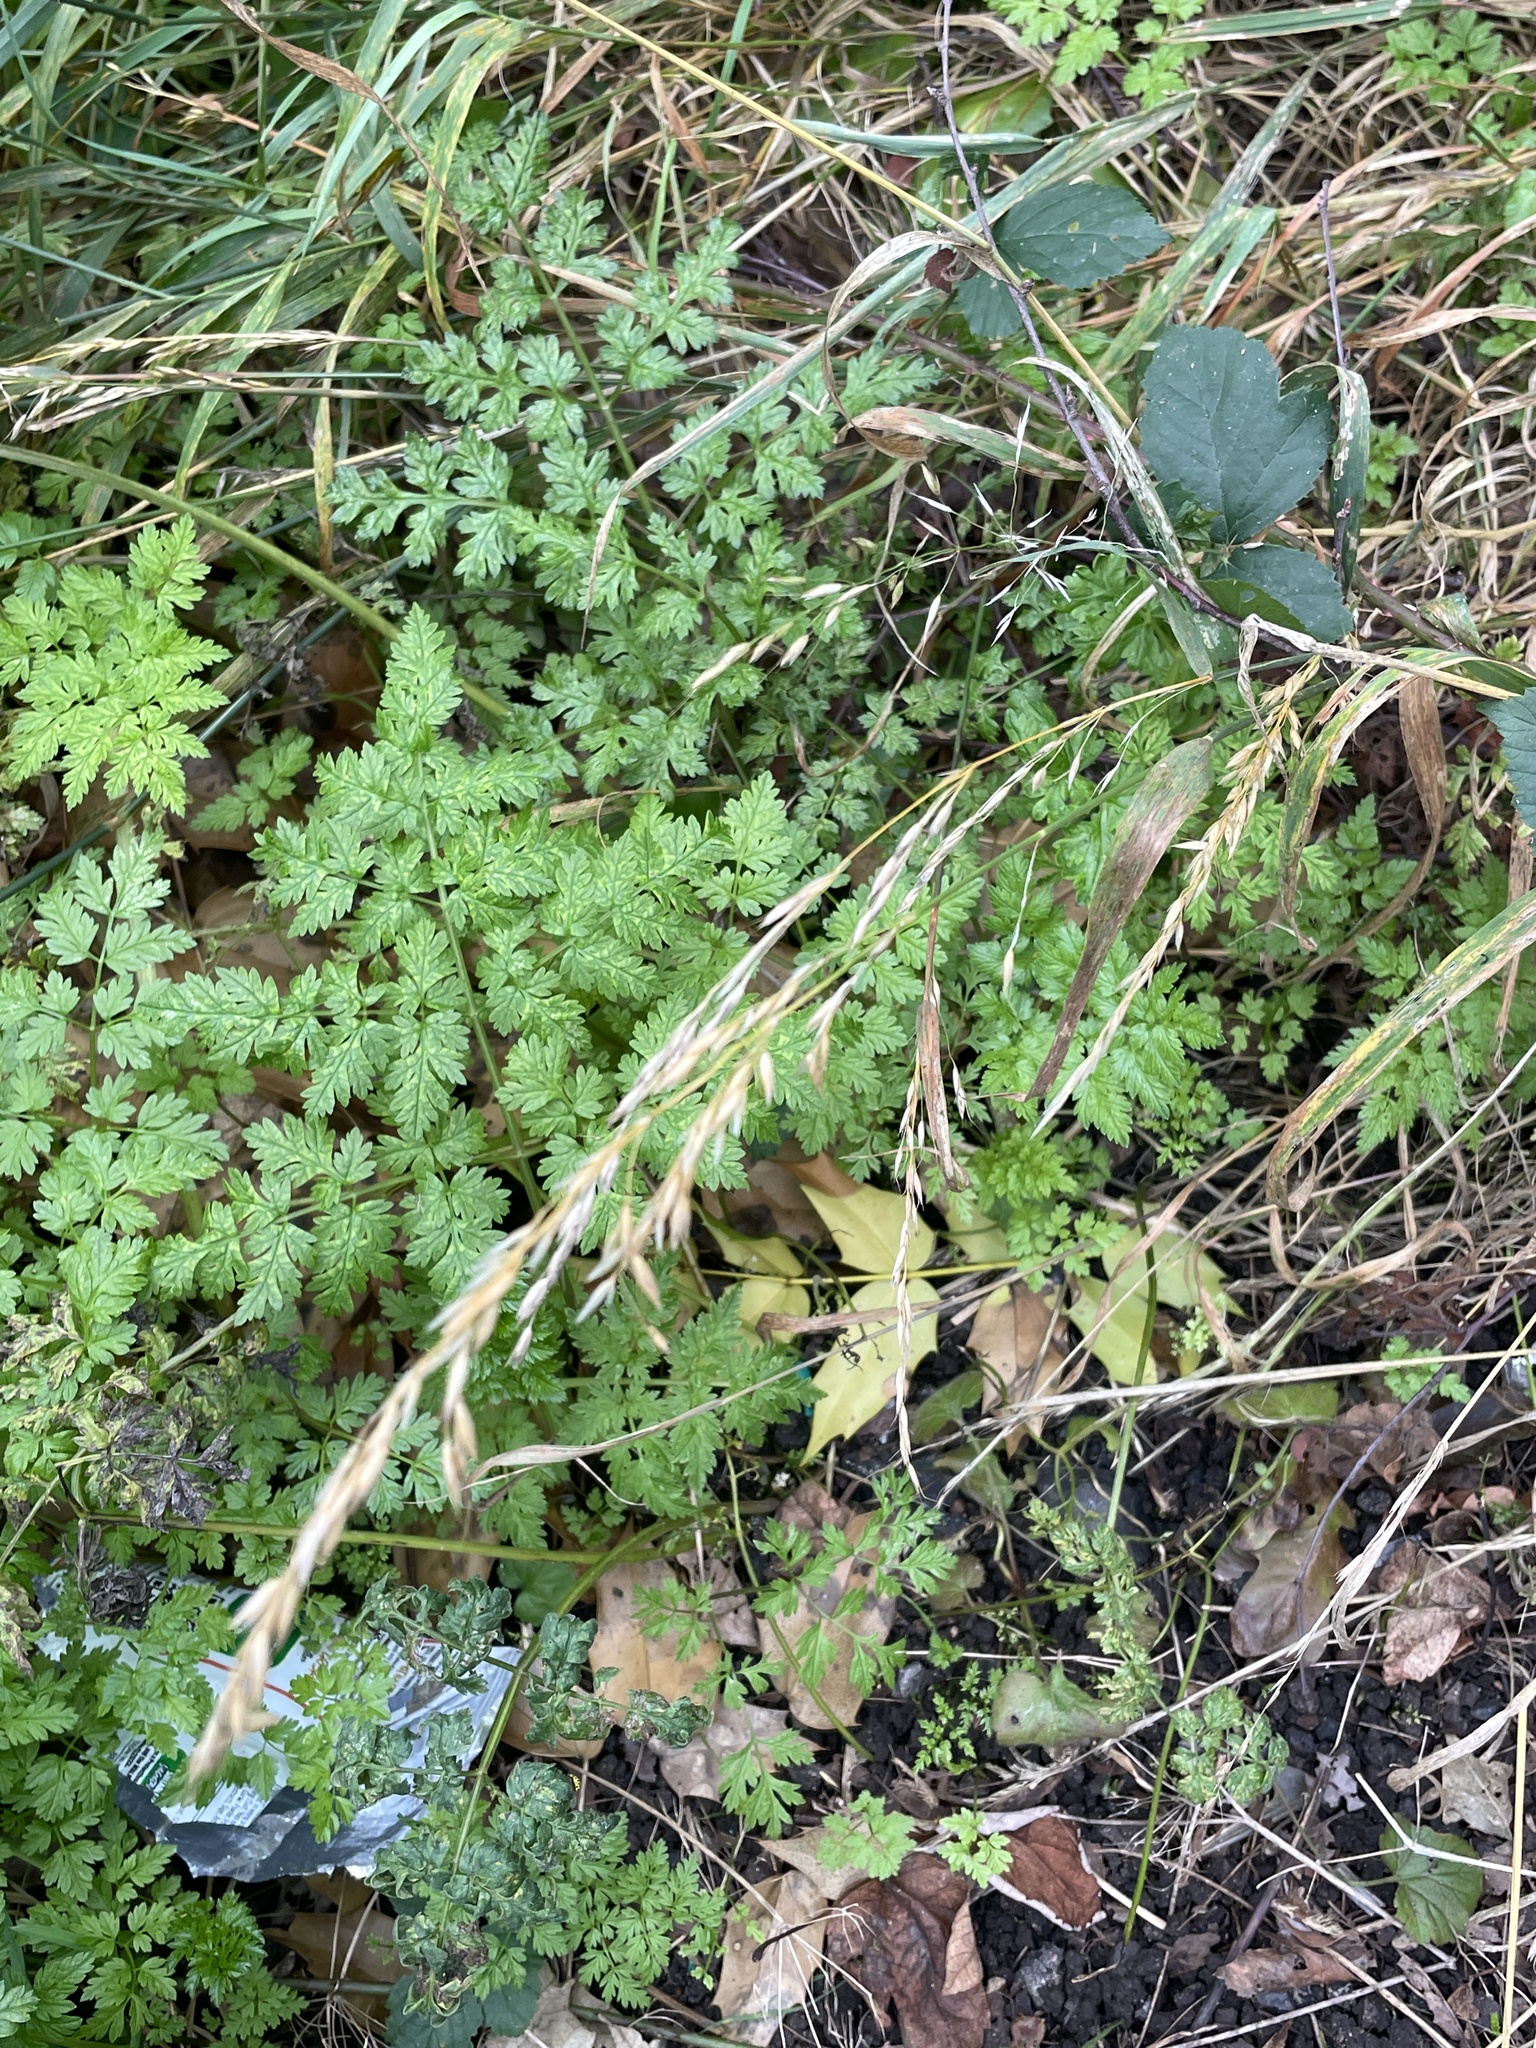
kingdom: Plantae
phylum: Tracheophyta
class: Liliopsida
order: Poales
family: Poaceae
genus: Arrhenatherum
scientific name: Arrhenatherum elatius
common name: Tall oatgrass
